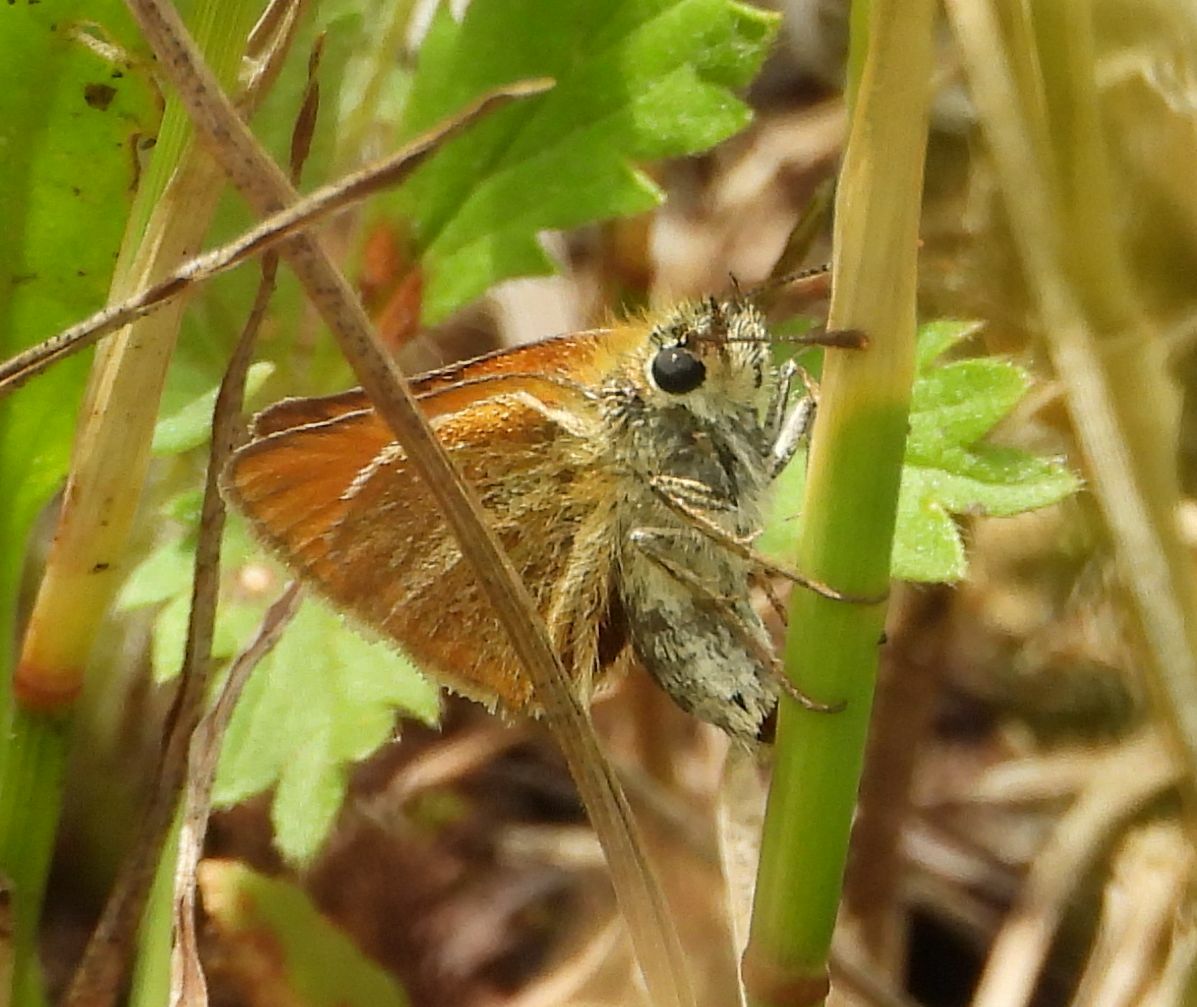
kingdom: Animalia
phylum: Arthropoda
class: Insecta
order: Lepidoptera
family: Hesperiidae
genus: Thymelicus
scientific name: Thymelicus lineola
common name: Essex skipper
